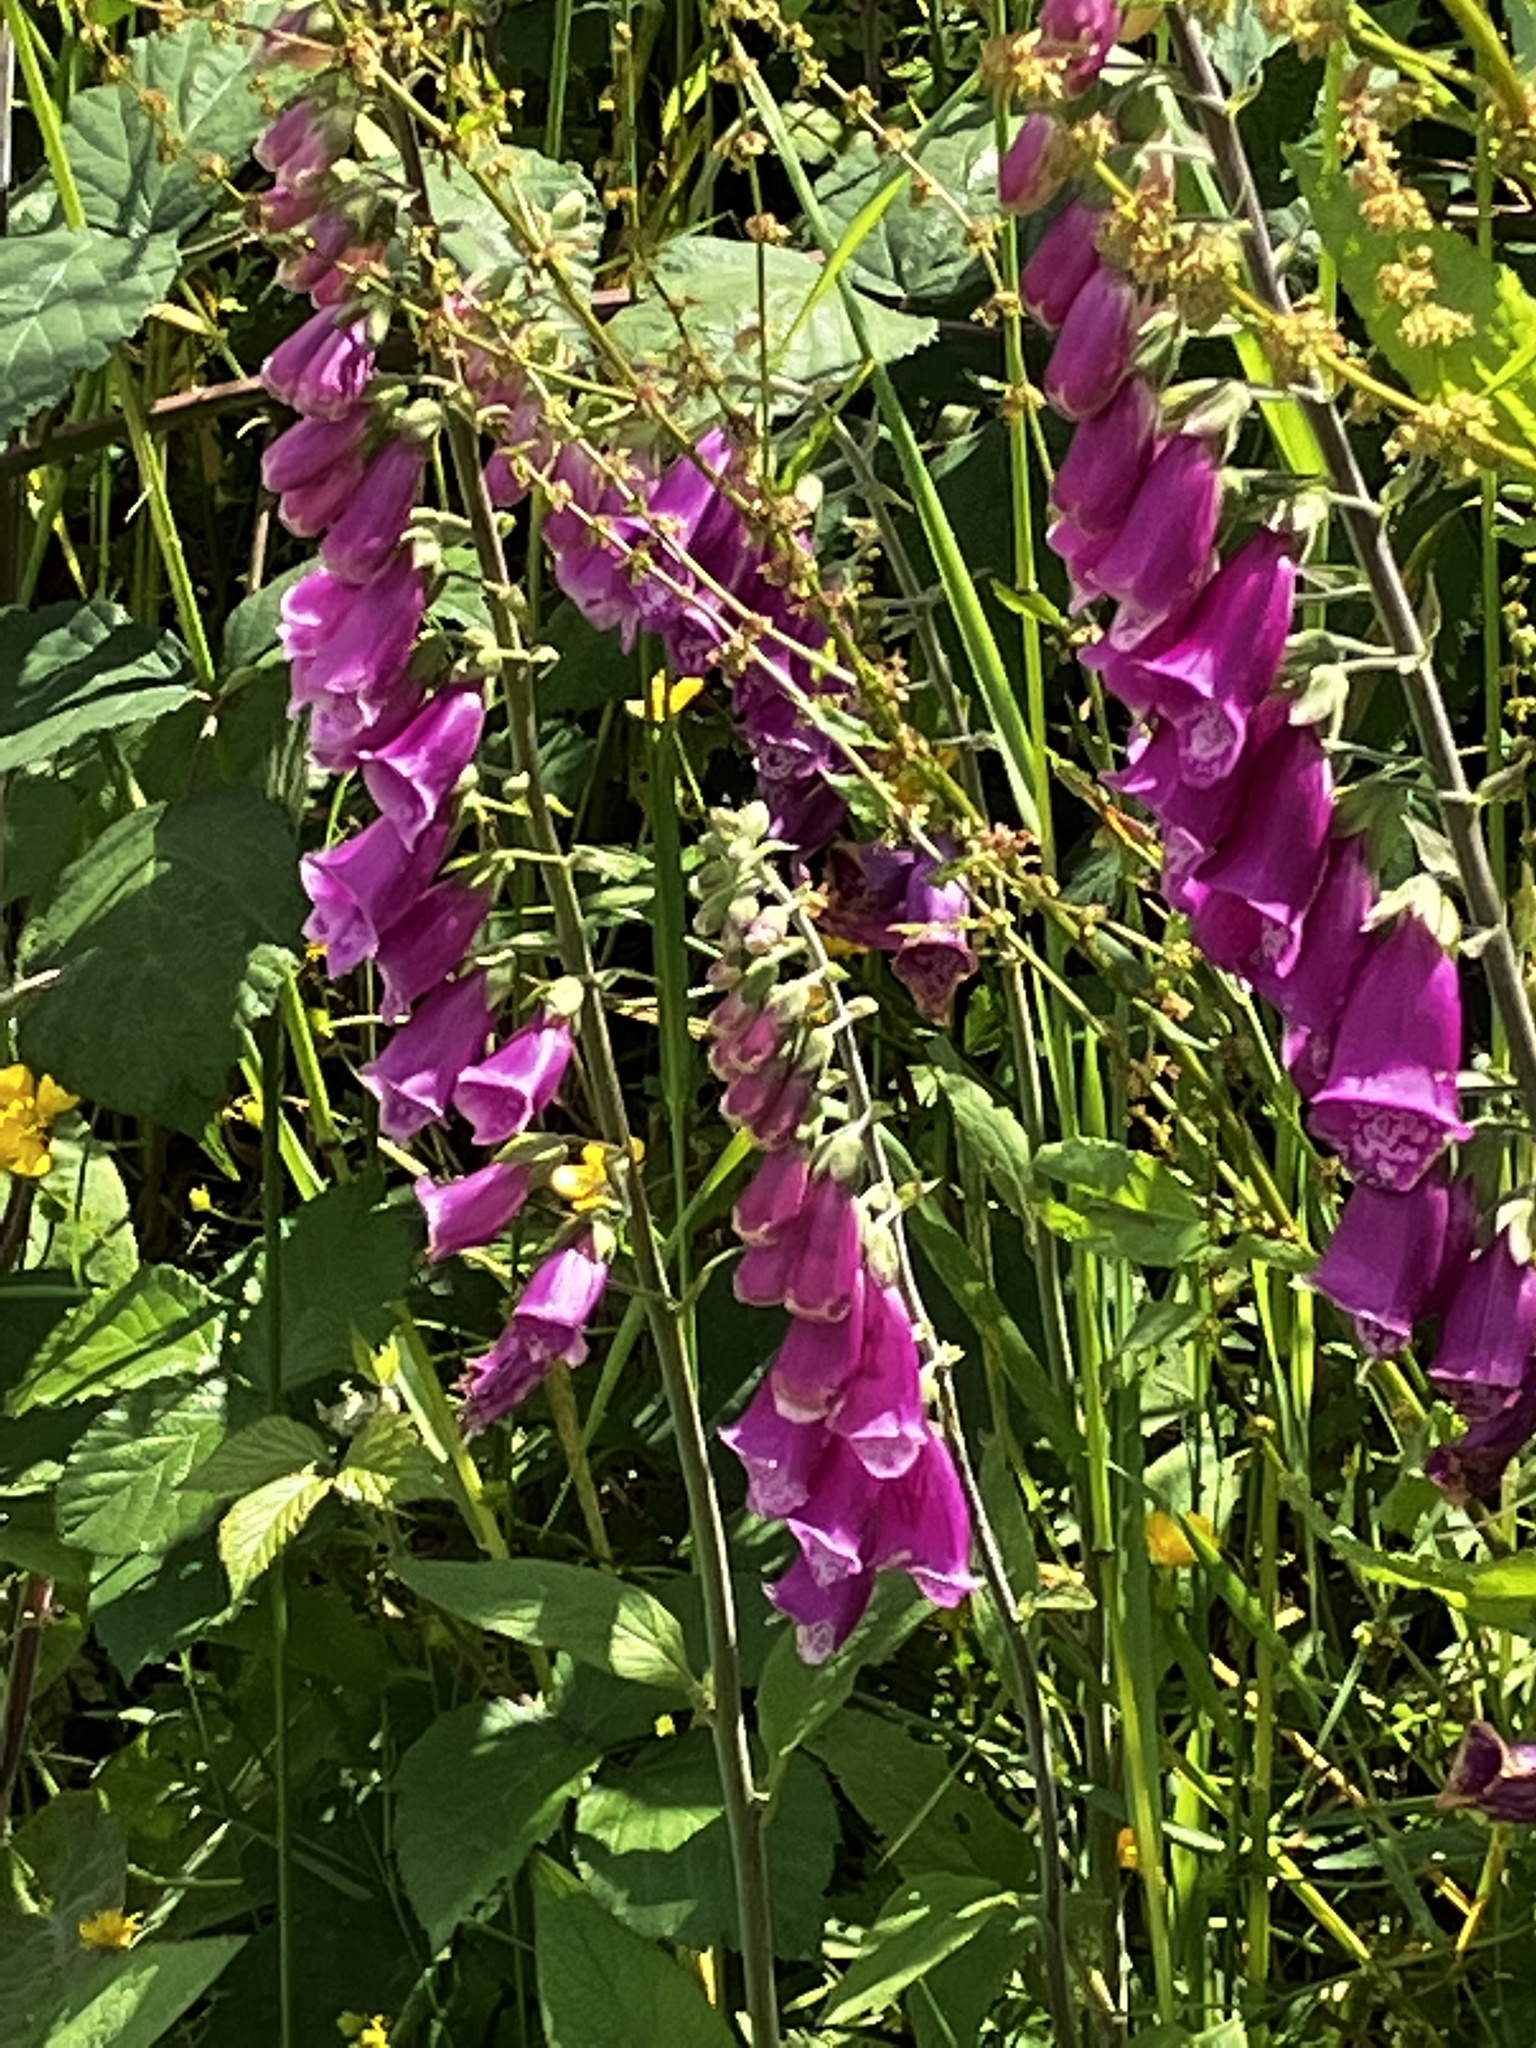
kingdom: Plantae
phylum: Tracheophyta
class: Magnoliopsida
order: Lamiales
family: Plantaginaceae
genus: Digitalis
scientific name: Digitalis purpurea
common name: Foxglove
